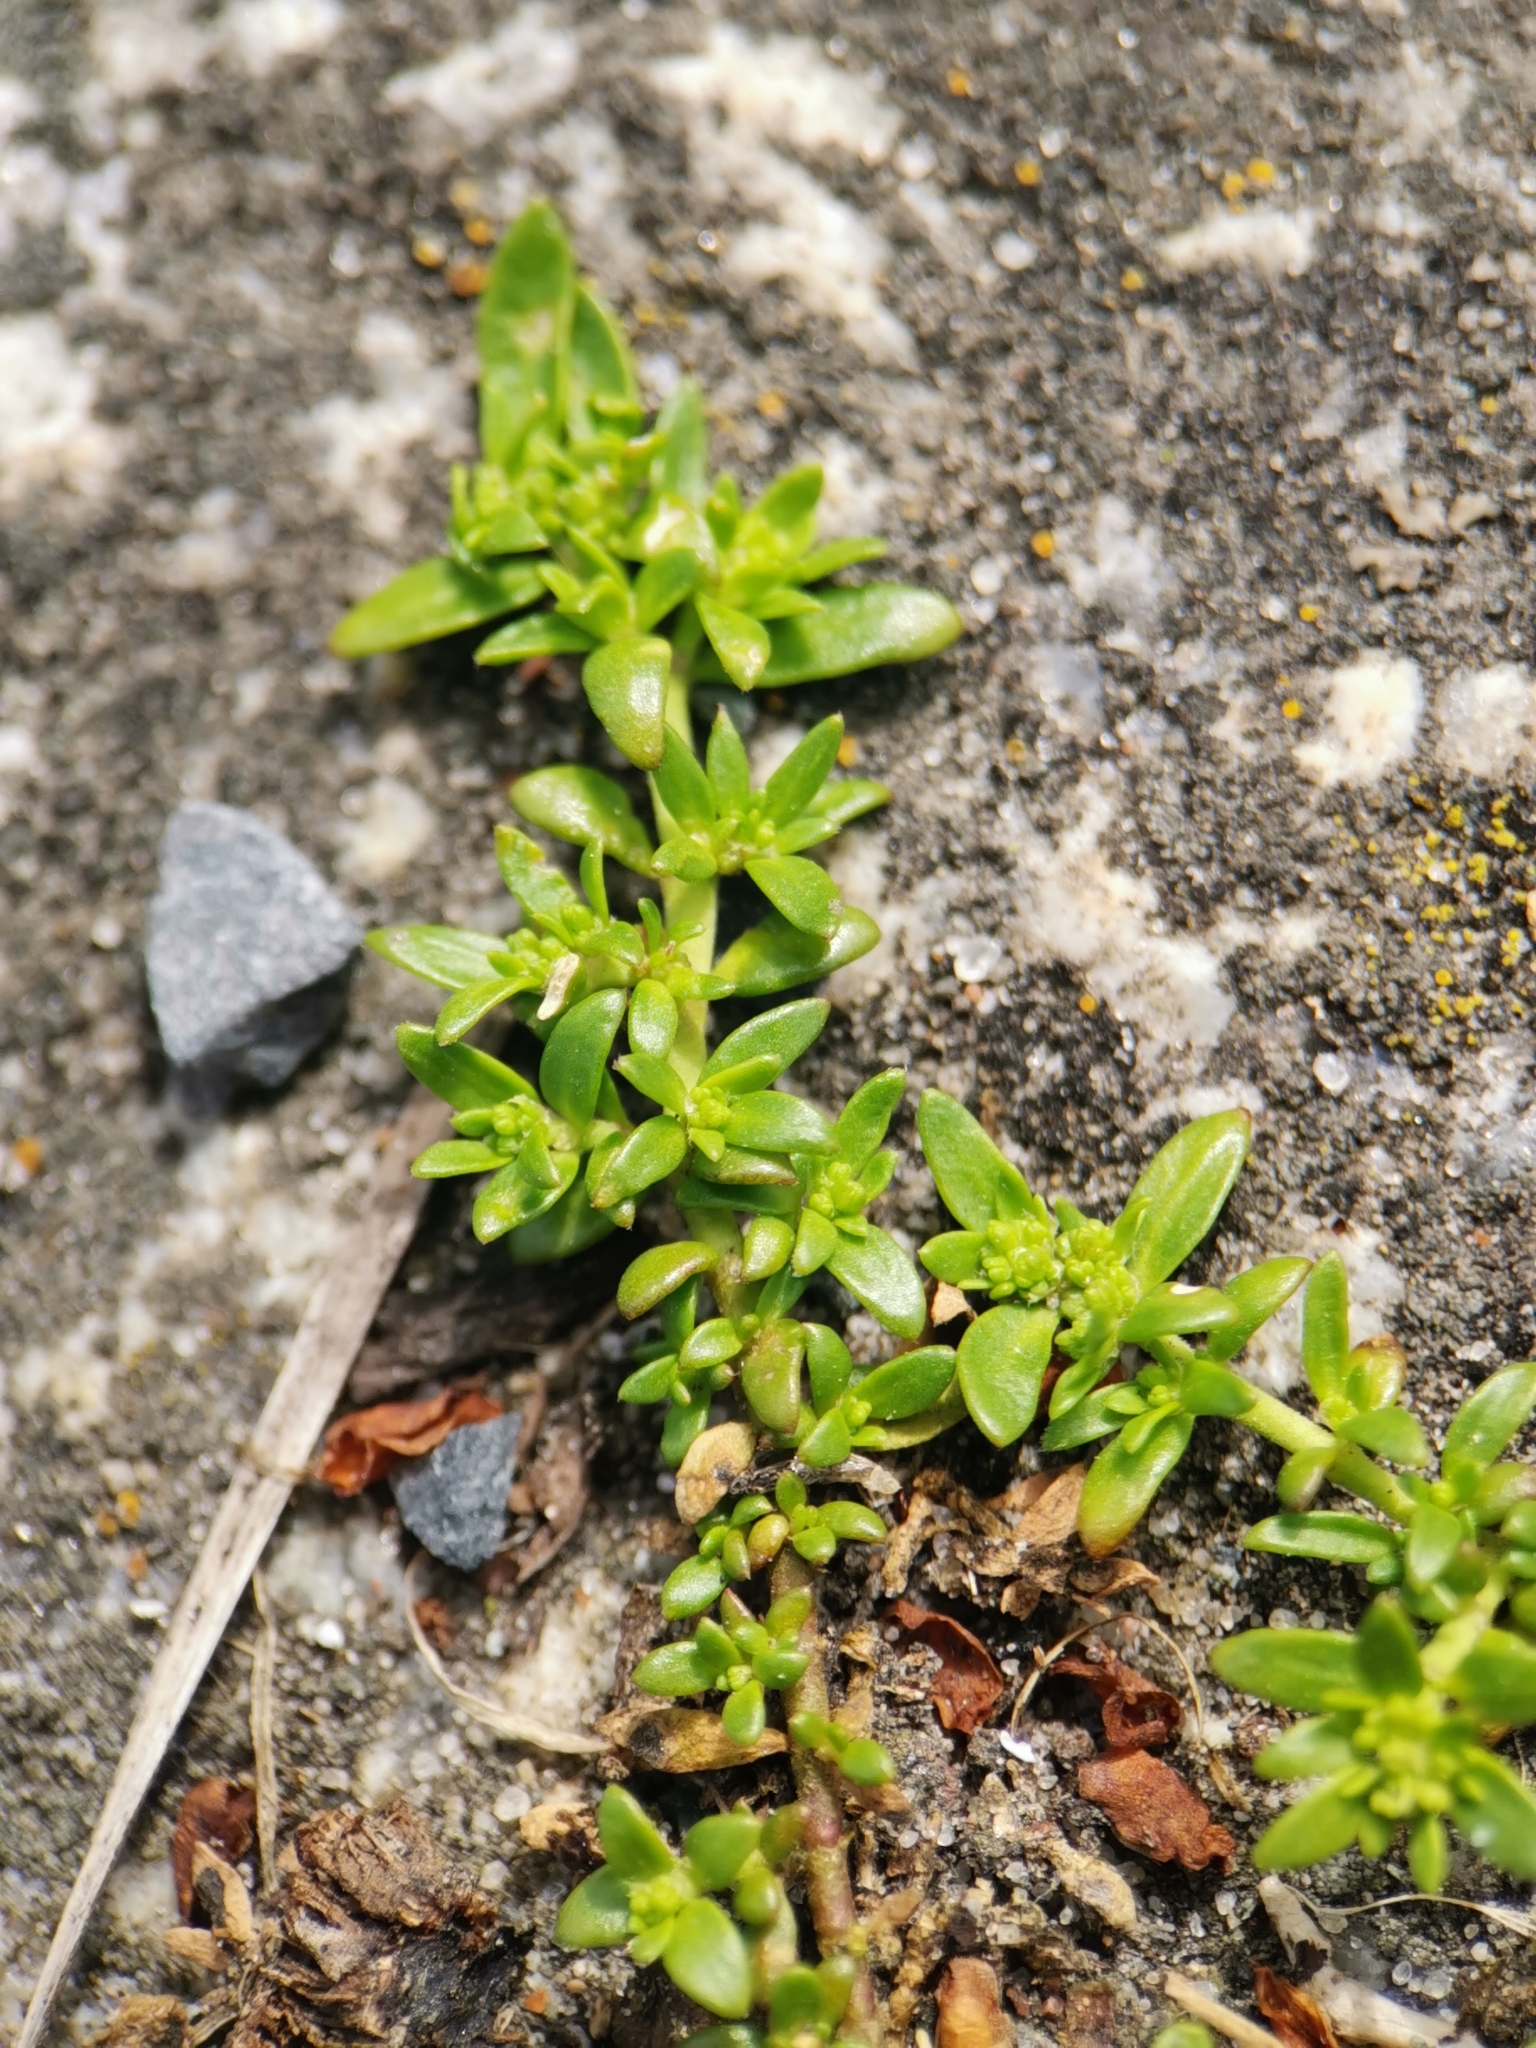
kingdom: Plantae
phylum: Tracheophyta
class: Magnoliopsida
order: Caryophyllales
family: Caryophyllaceae
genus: Herniaria
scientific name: Herniaria glabra
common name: Smooth rupturewort
